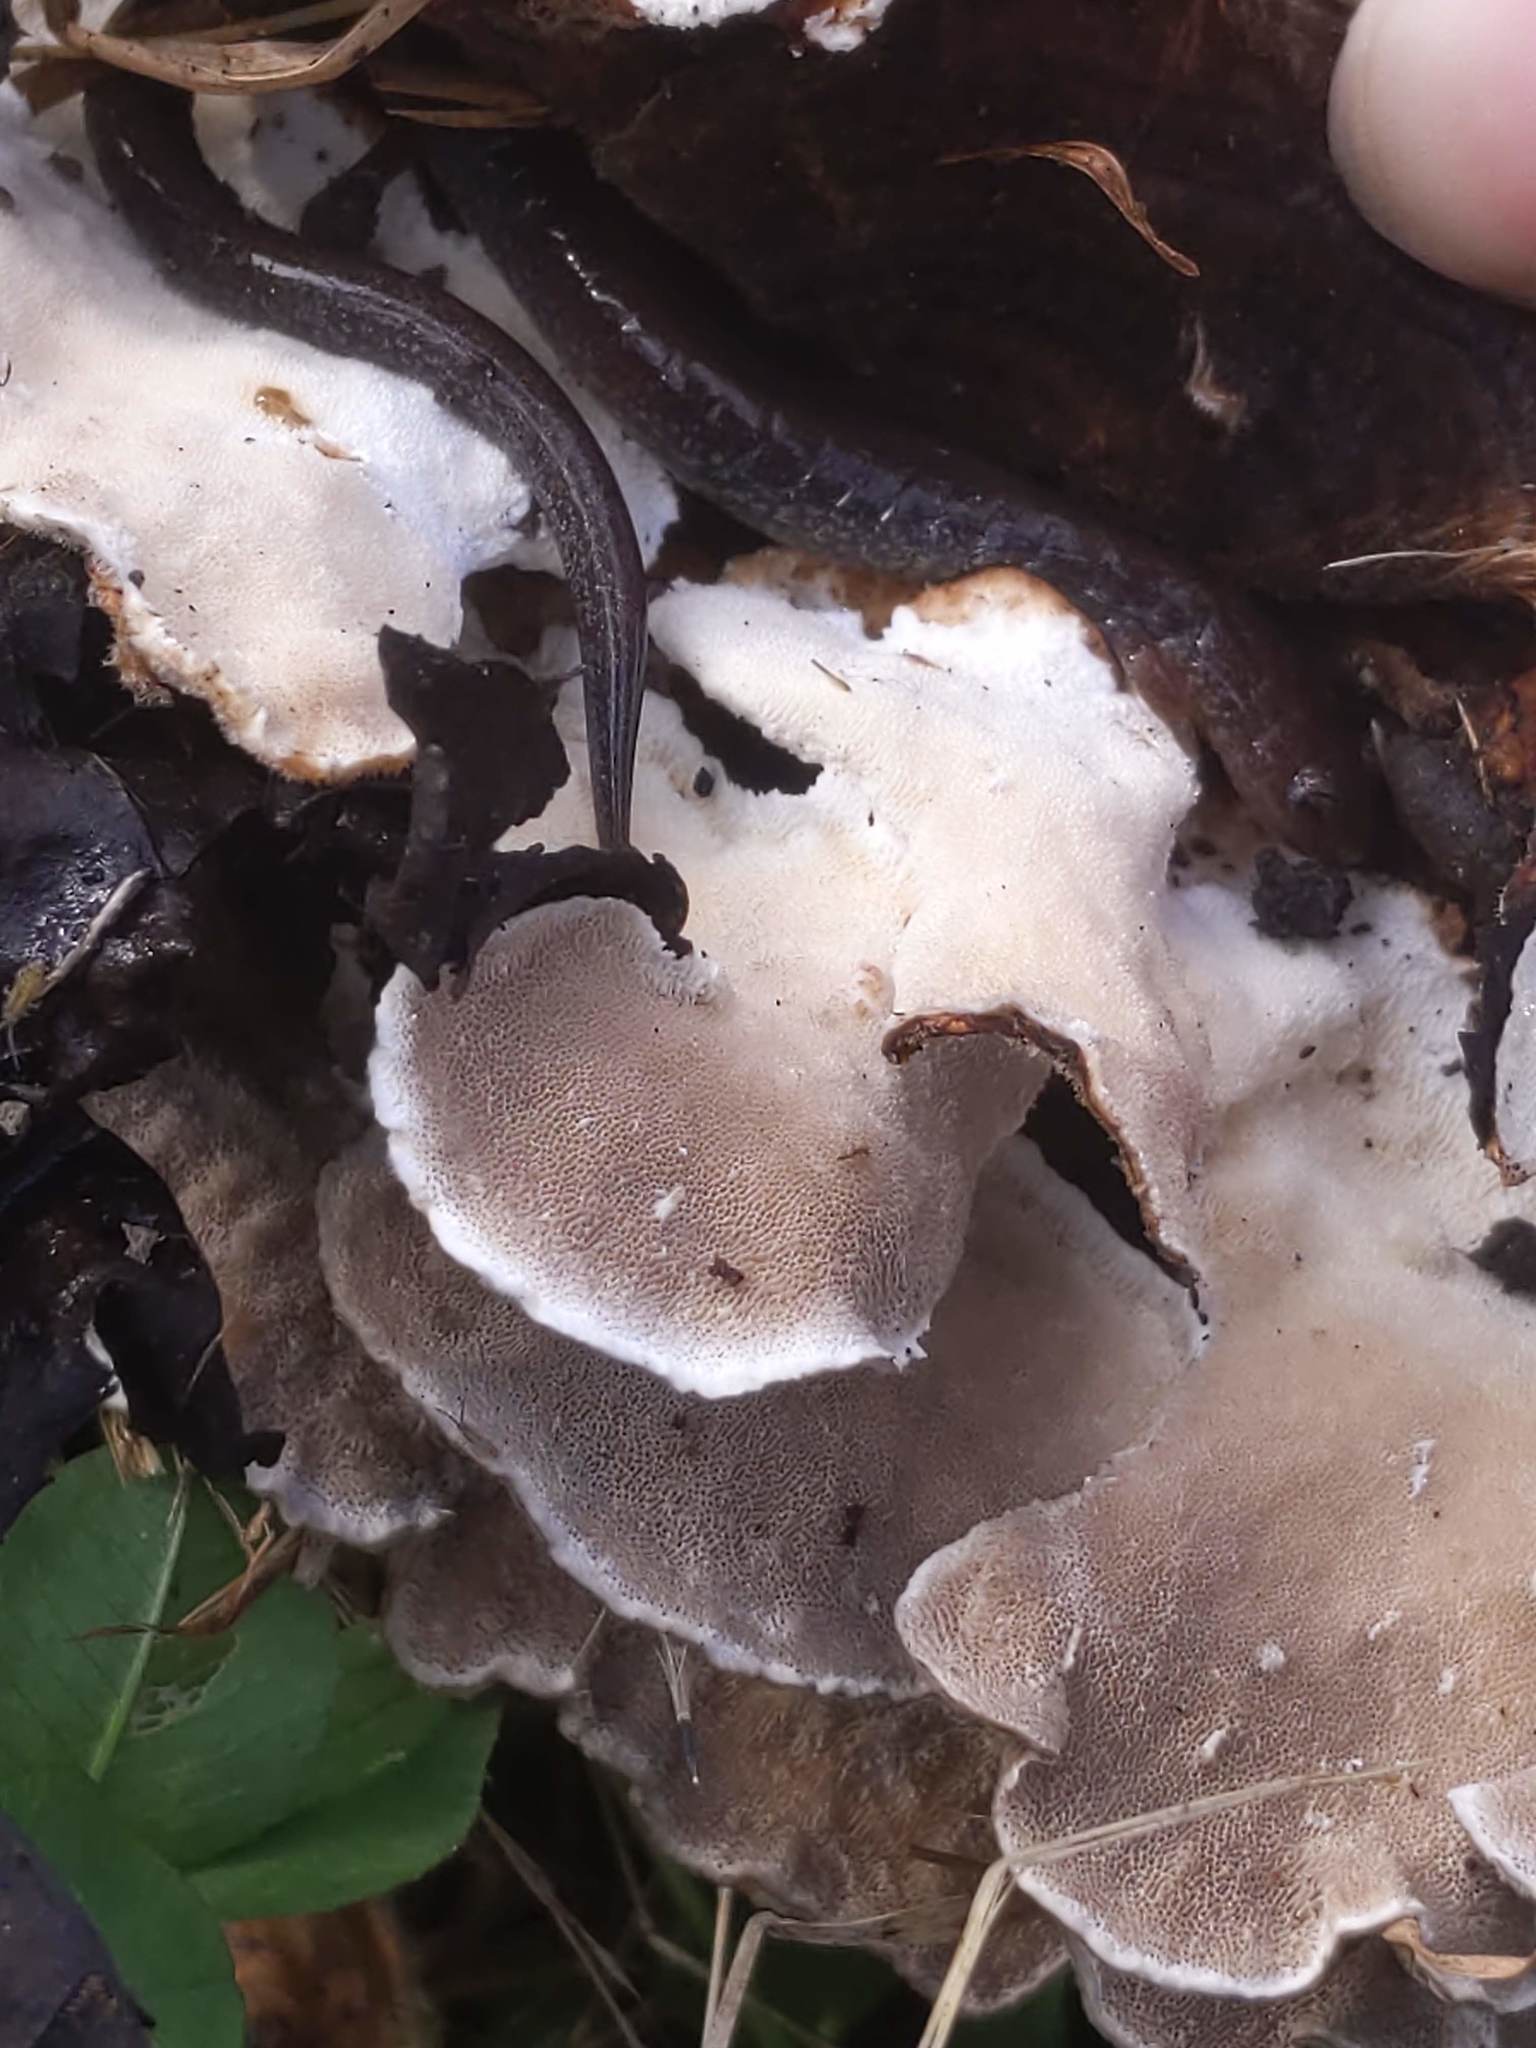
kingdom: Animalia
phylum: Chordata
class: Amphibia
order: Caudata
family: Plethodontidae
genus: Plethodon
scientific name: Plethodon cinereus
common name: Redback salamander
